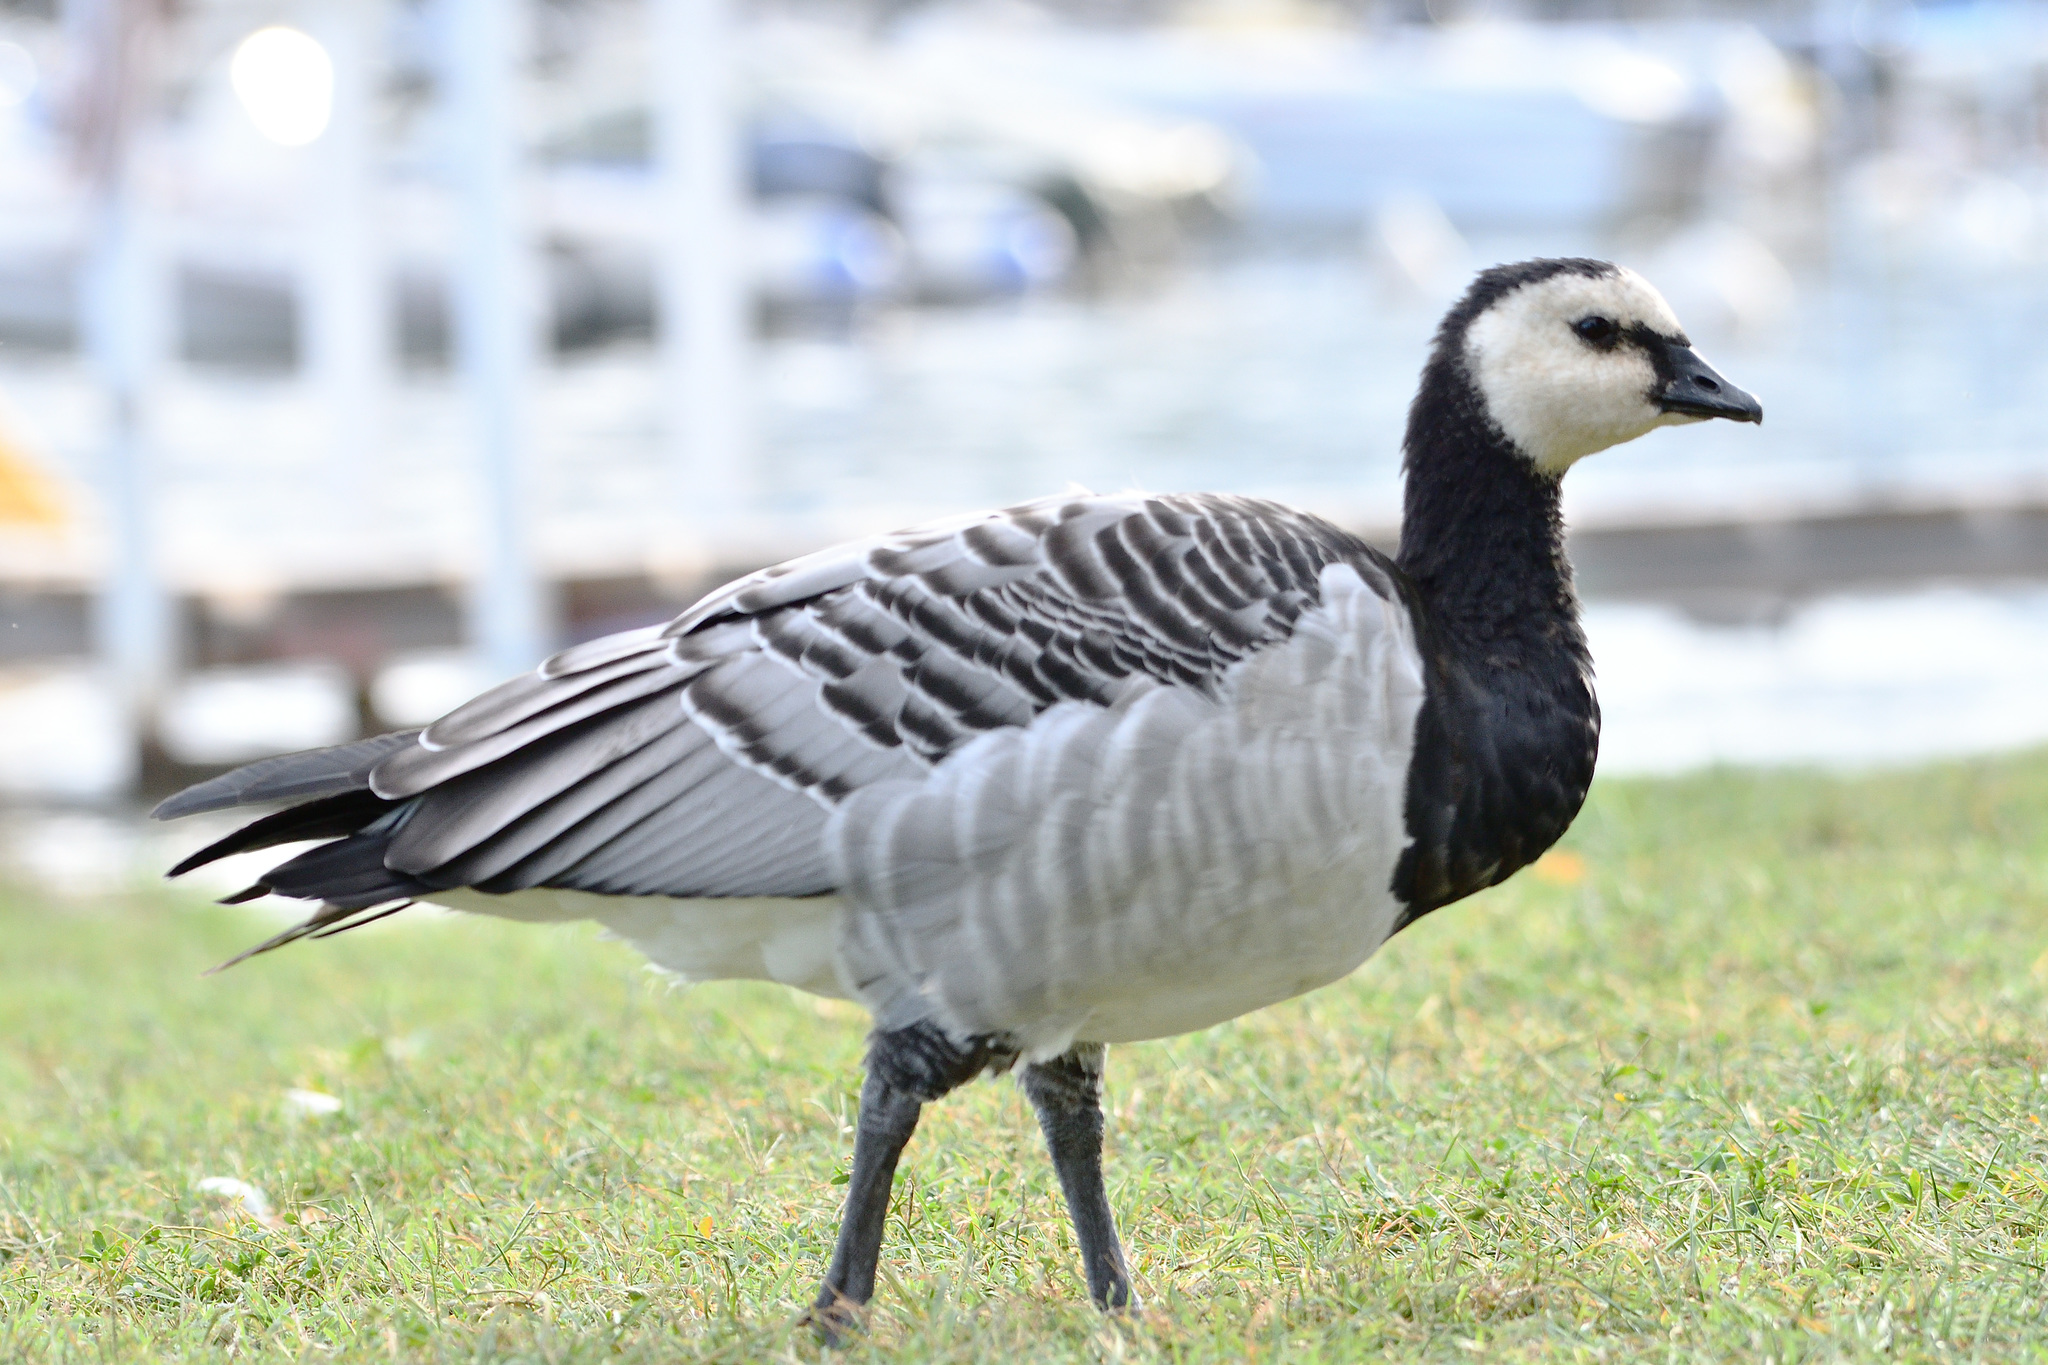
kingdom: Animalia
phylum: Chordata
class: Aves
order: Anseriformes
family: Anatidae
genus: Branta
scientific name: Branta leucopsis
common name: Barnacle goose
